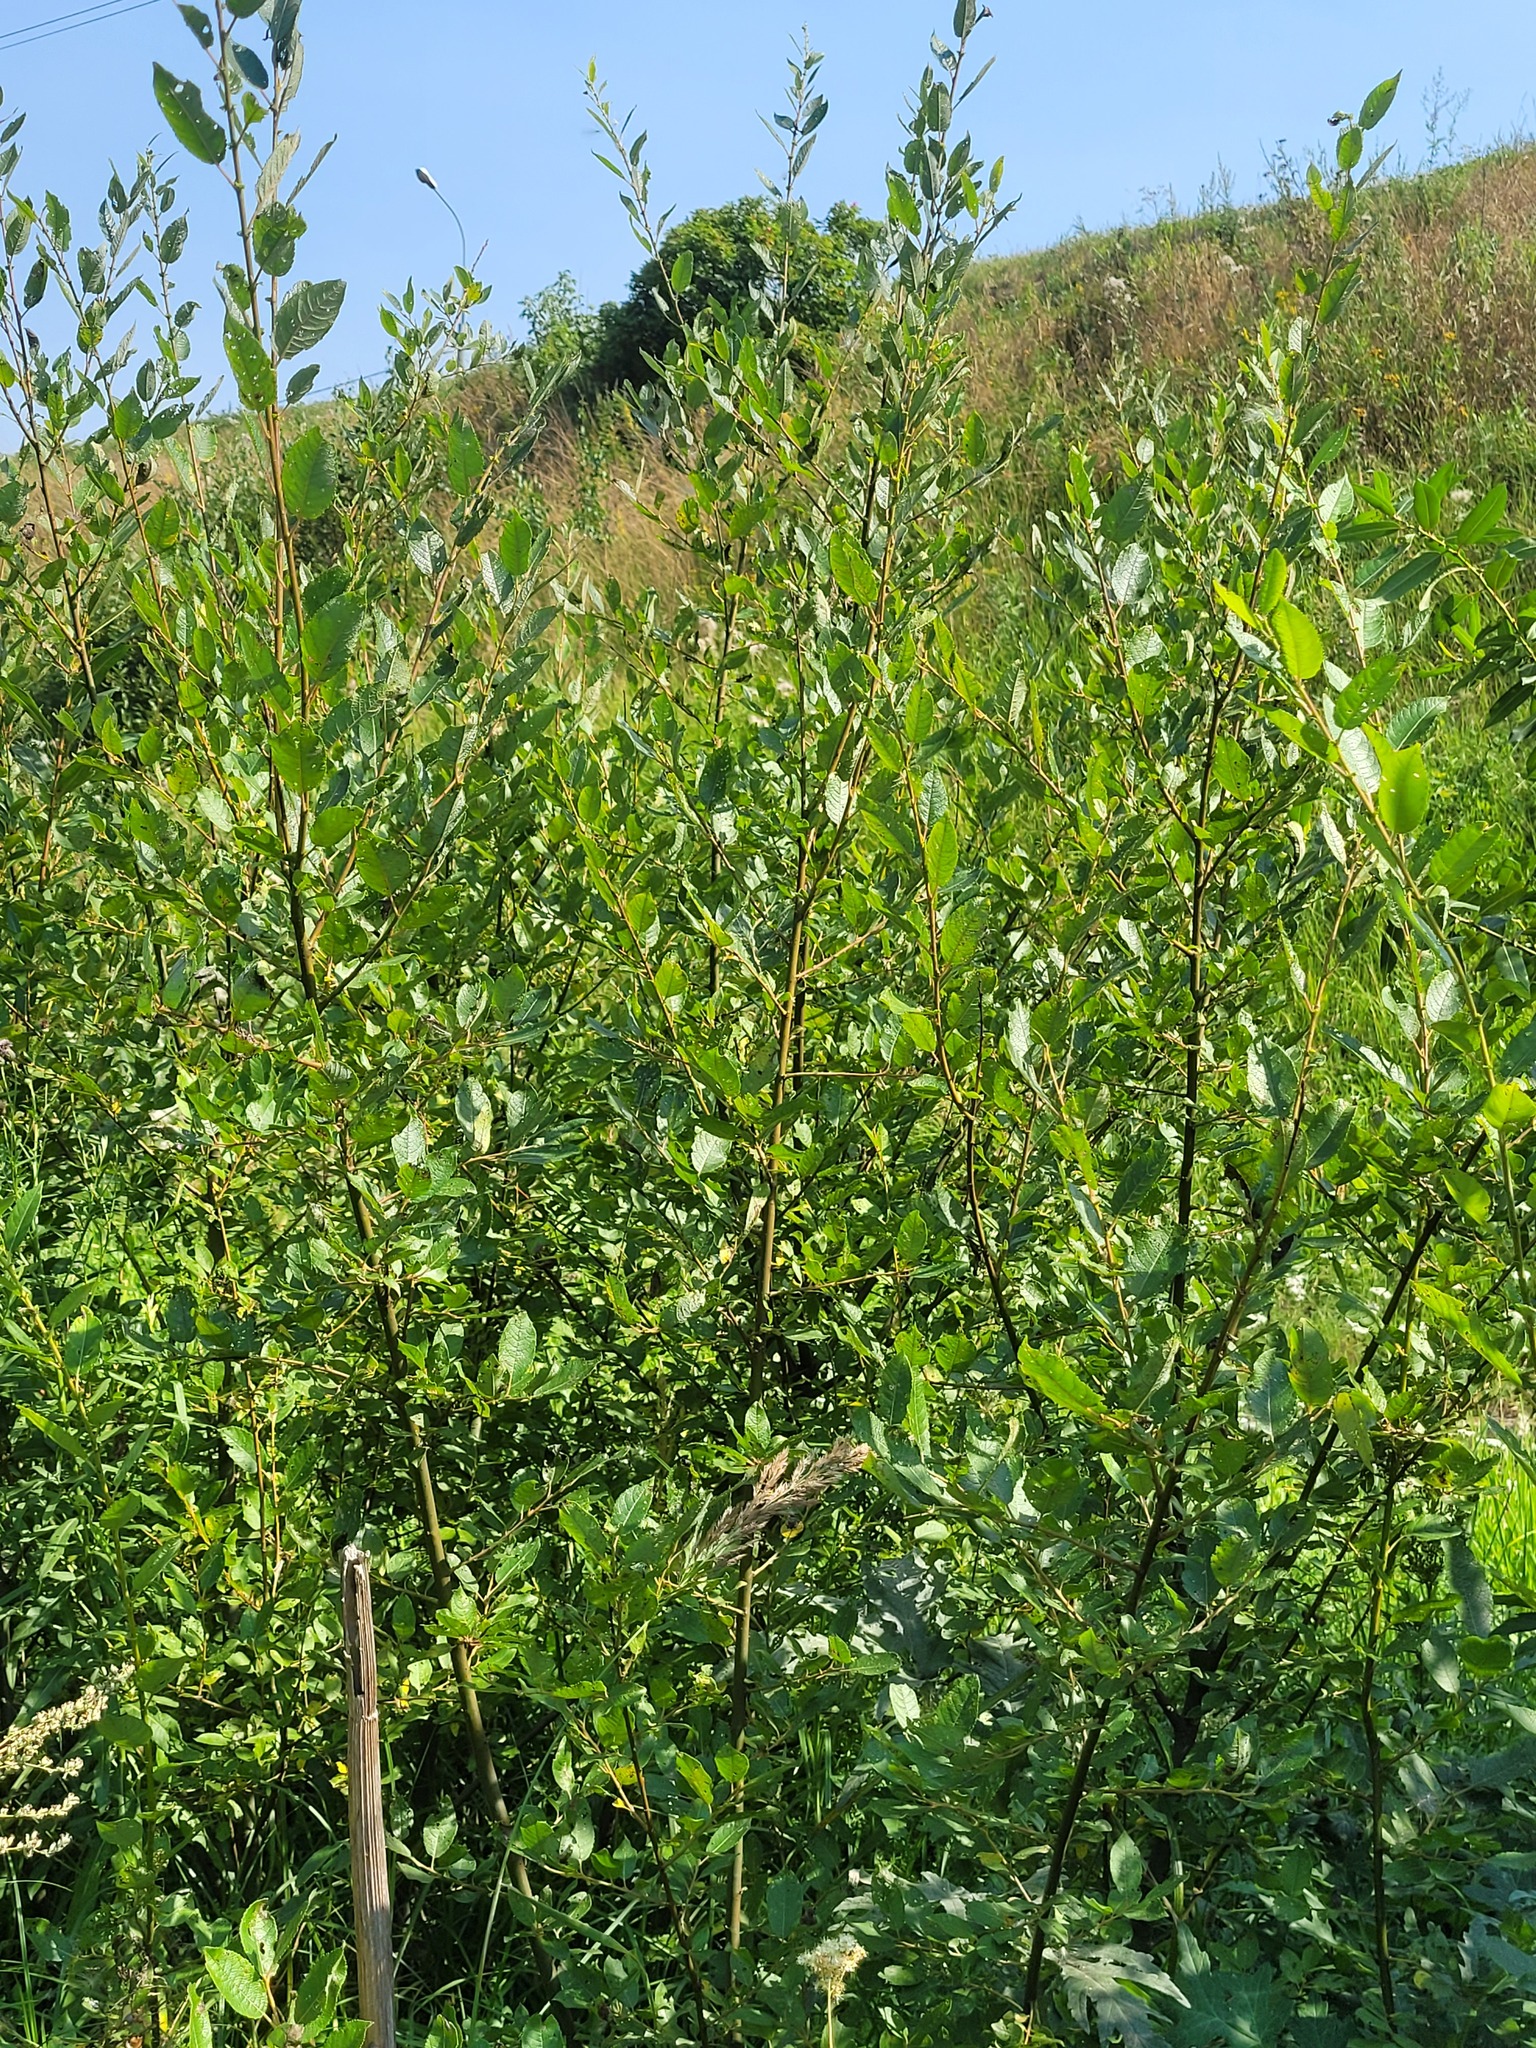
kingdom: Plantae
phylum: Tracheophyta
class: Magnoliopsida
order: Malpighiales
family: Salicaceae
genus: Salix
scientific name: Salix myrsinifolia
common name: Dark-leaved willow
